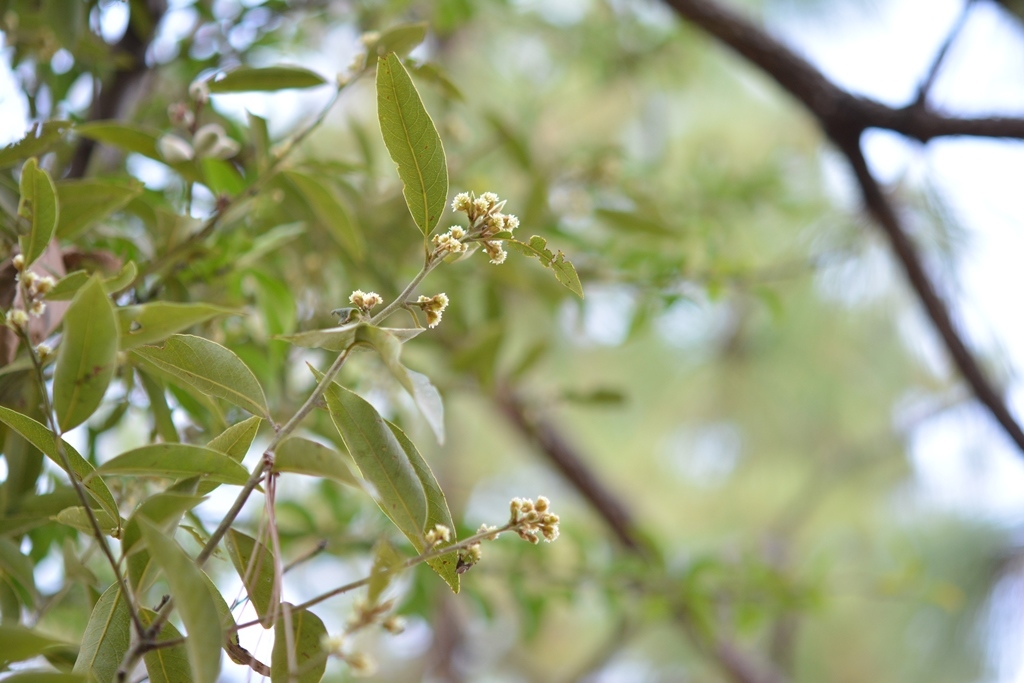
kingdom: Plantae
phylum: Tracheophyta
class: Magnoliopsida
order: Laurales
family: Lauraceae
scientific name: Lauraceae
